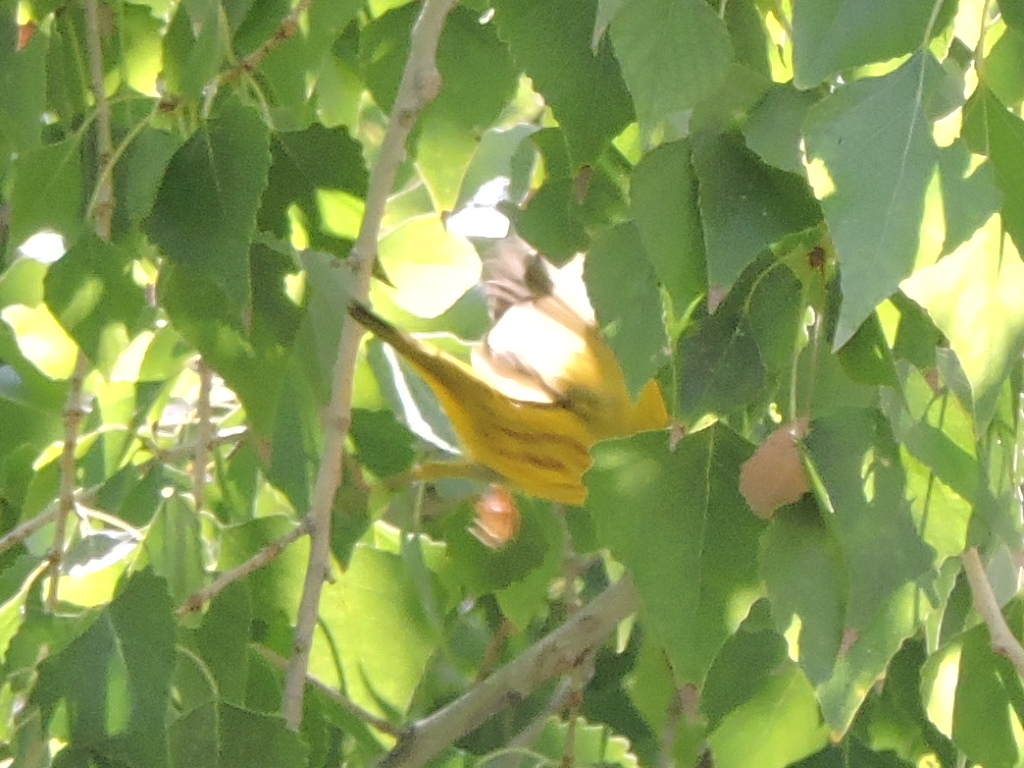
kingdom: Animalia
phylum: Chordata
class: Aves
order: Passeriformes
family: Parulidae
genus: Setophaga
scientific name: Setophaga petechia
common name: Yellow warbler
